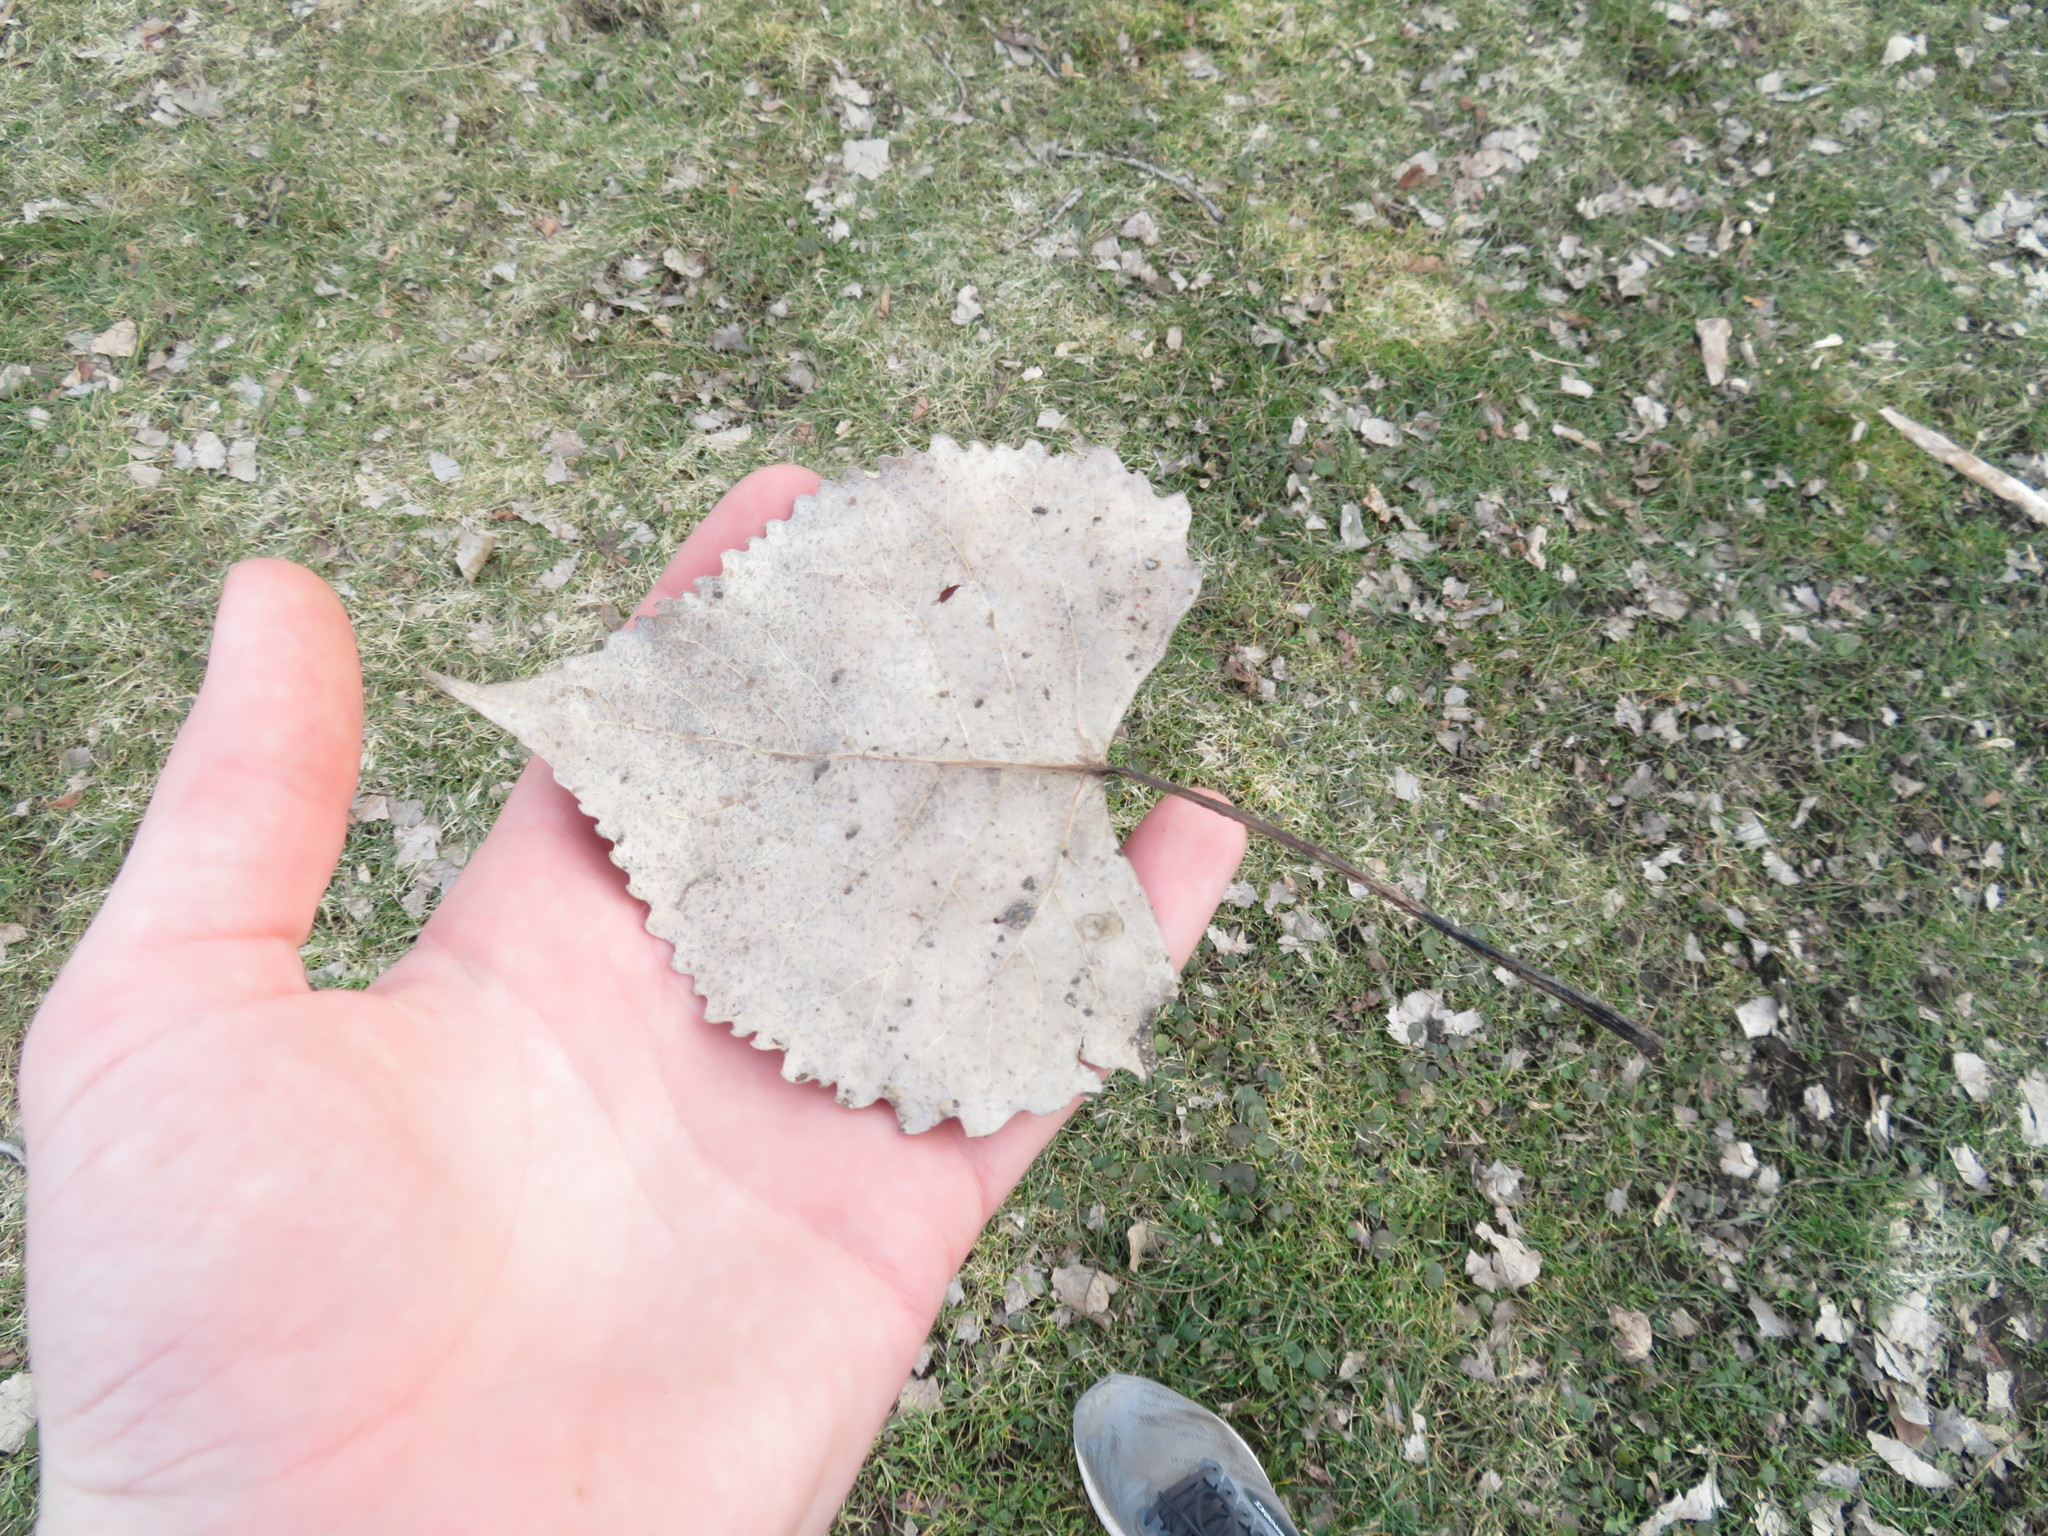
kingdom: Plantae
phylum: Tracheophyta
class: Magnoliopsida
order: Malpighiales
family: Salicaceae
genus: Populus
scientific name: Populus deltoides
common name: Eastern cottonwood
